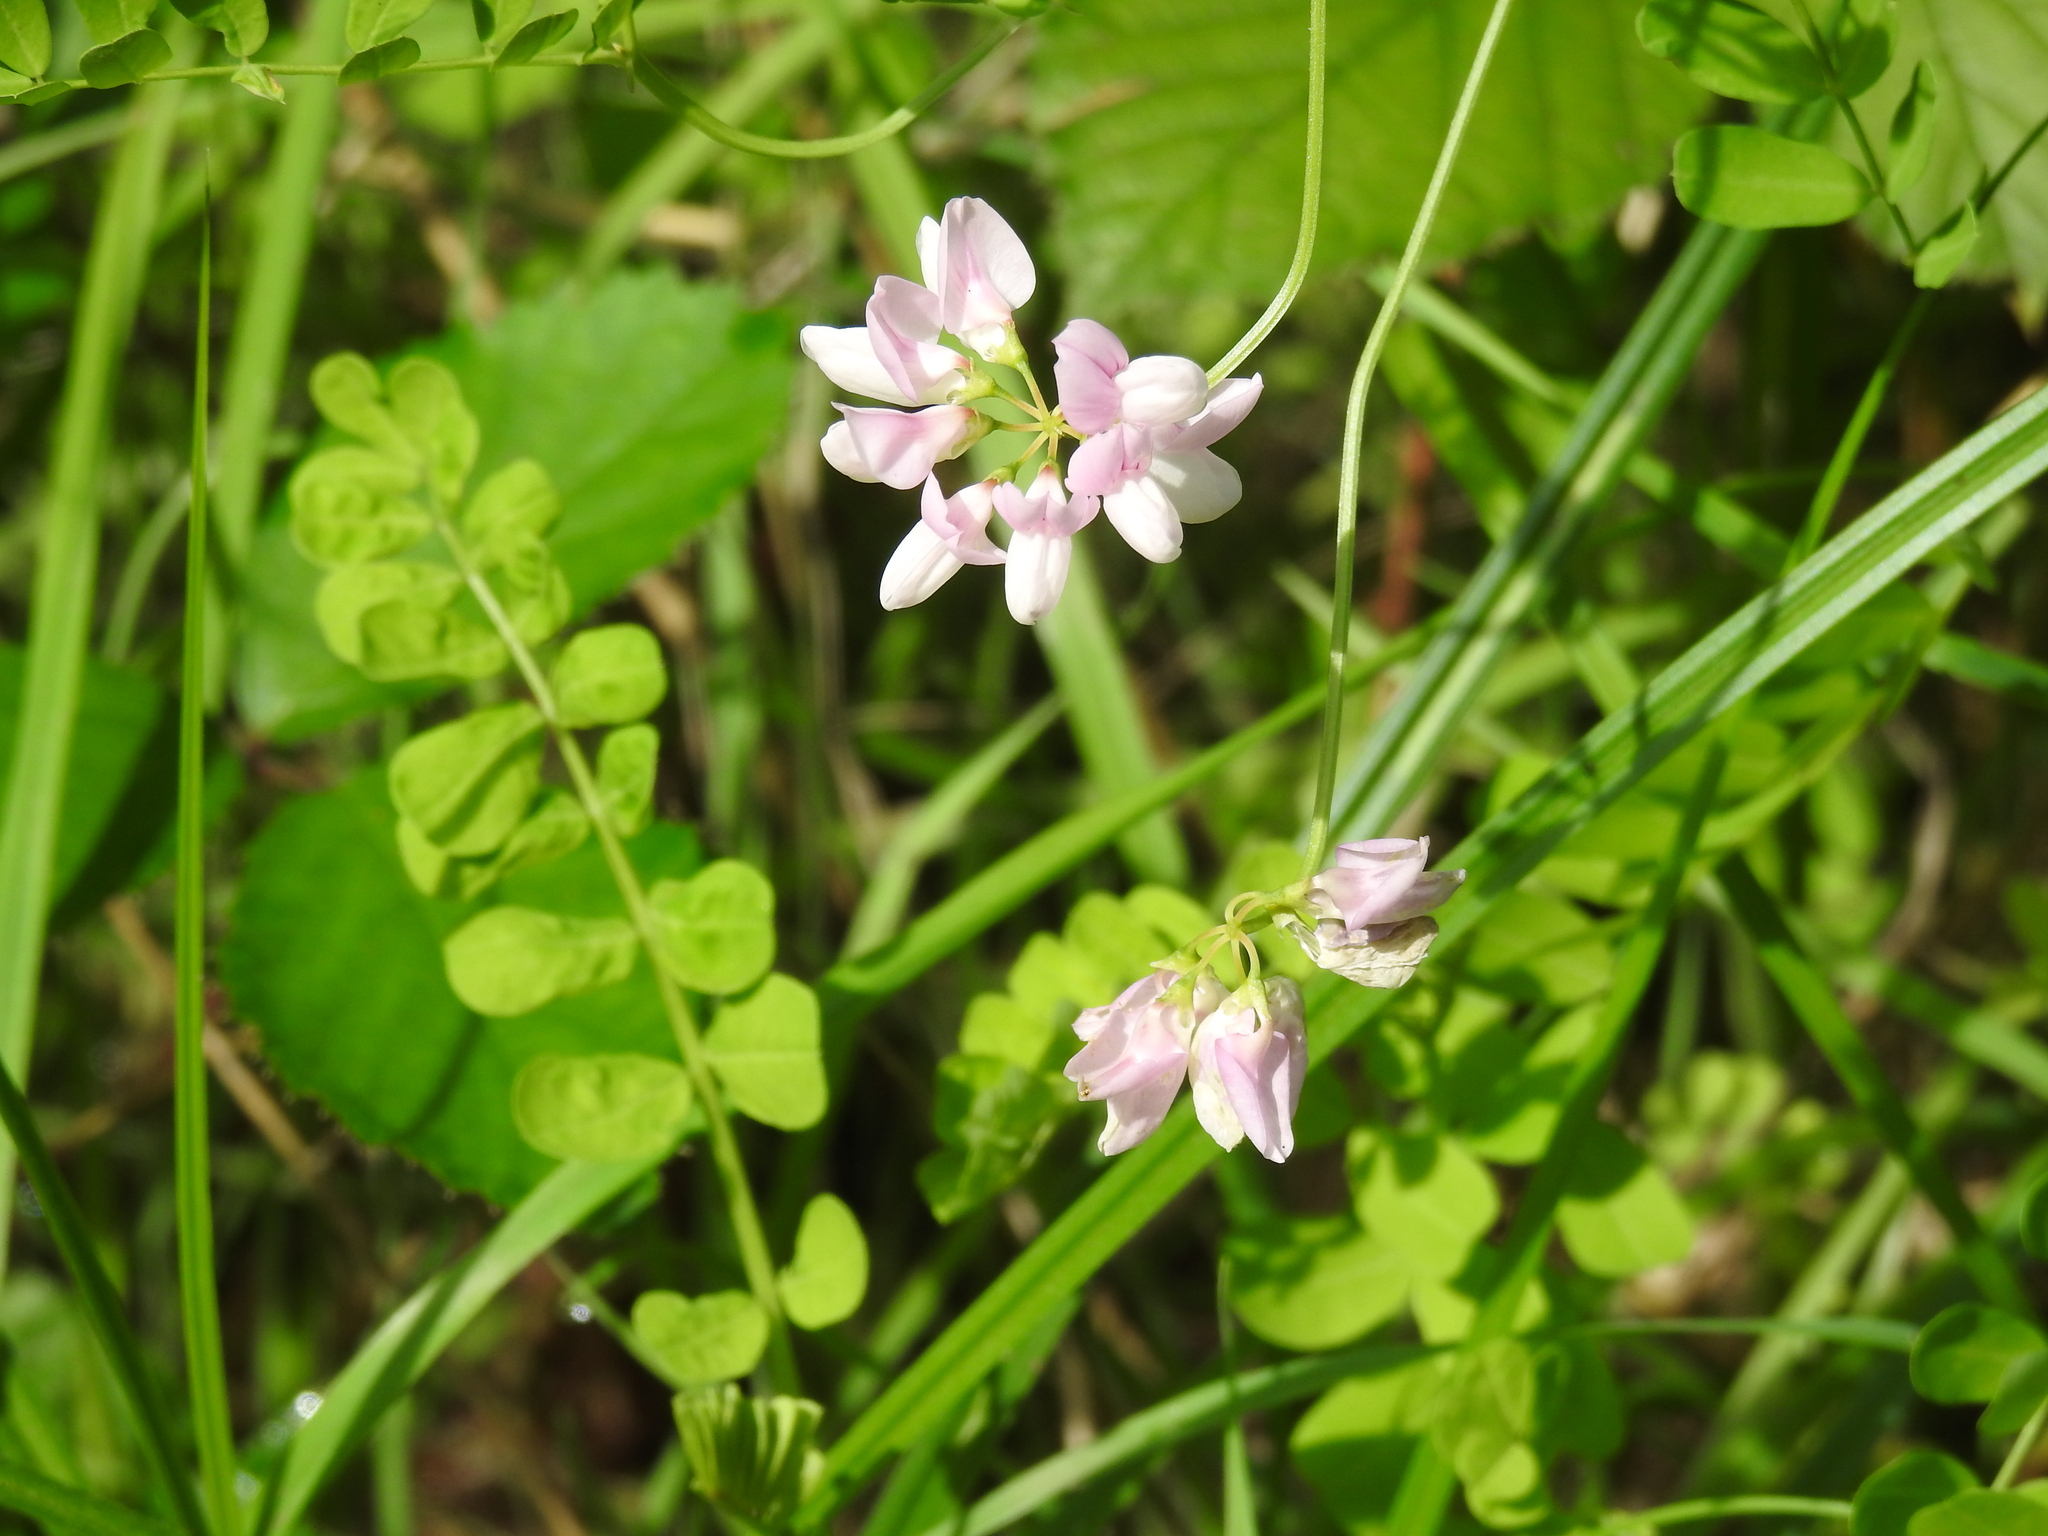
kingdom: Plantae
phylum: Tracheophyta
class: Magnoliopsida
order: Fabales
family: Fabaceae
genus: Coronilla
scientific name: Coronilla varia
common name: Crownvetch
